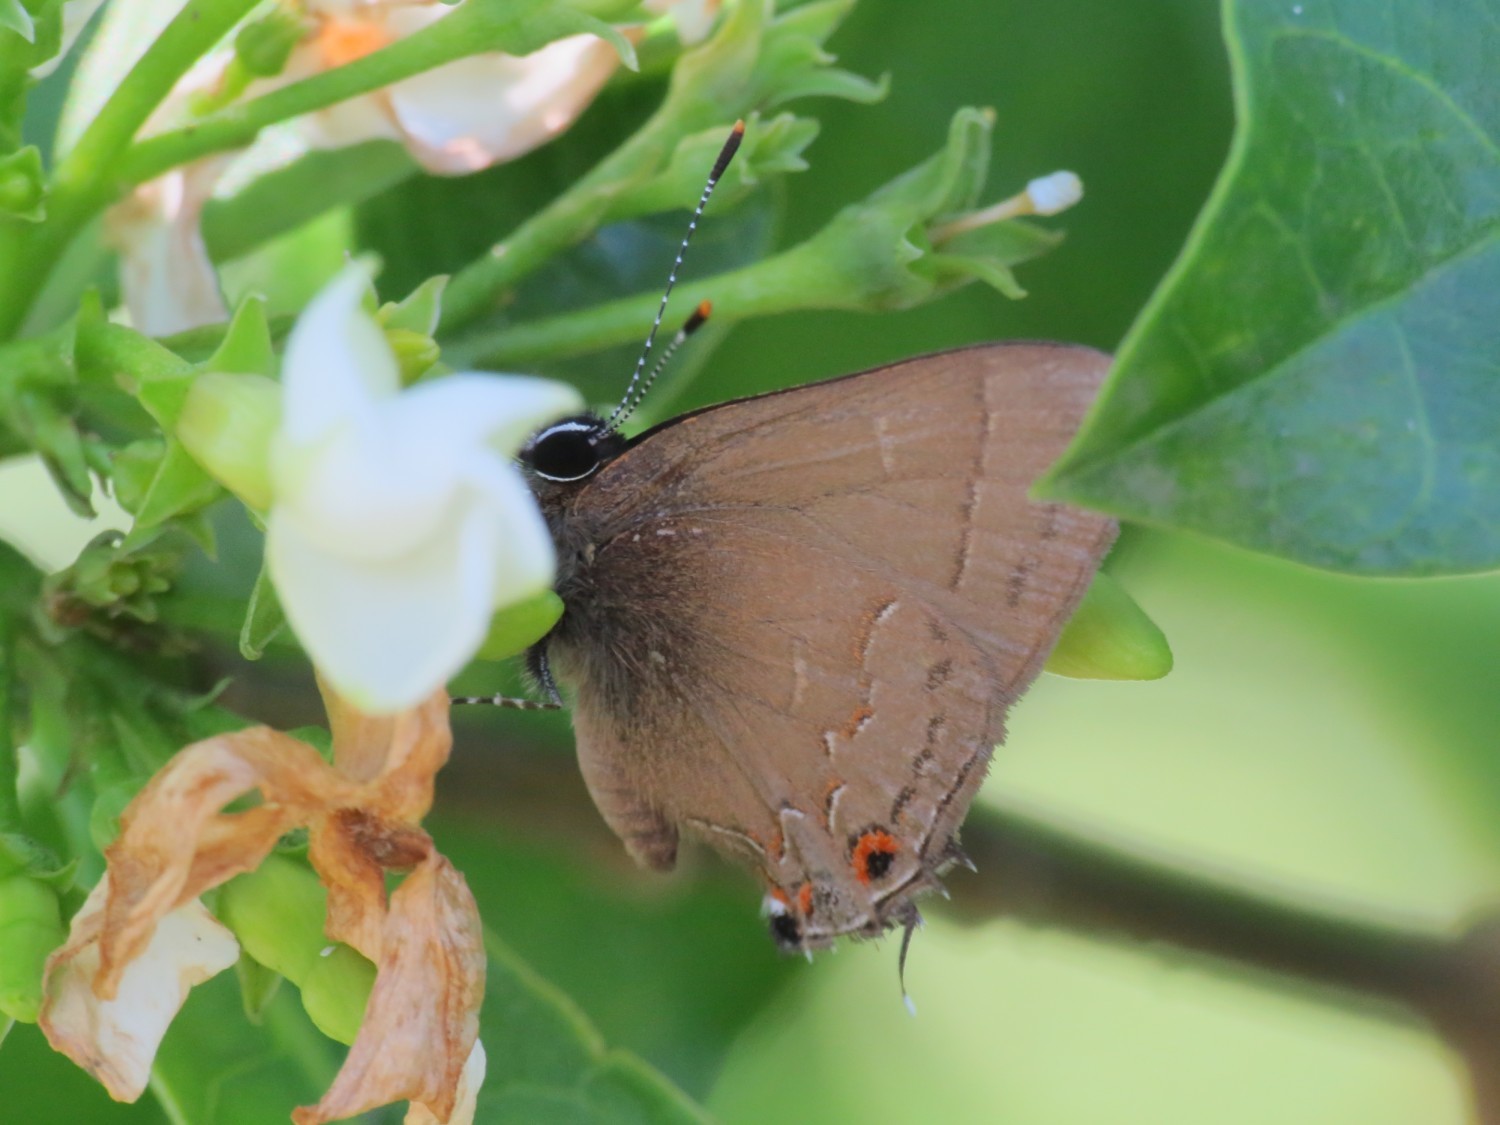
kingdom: Animalia
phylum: Arthropoda
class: Insecta
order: Lepidoptera
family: Lycaenidae
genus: Arzecla
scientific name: Arzecla
